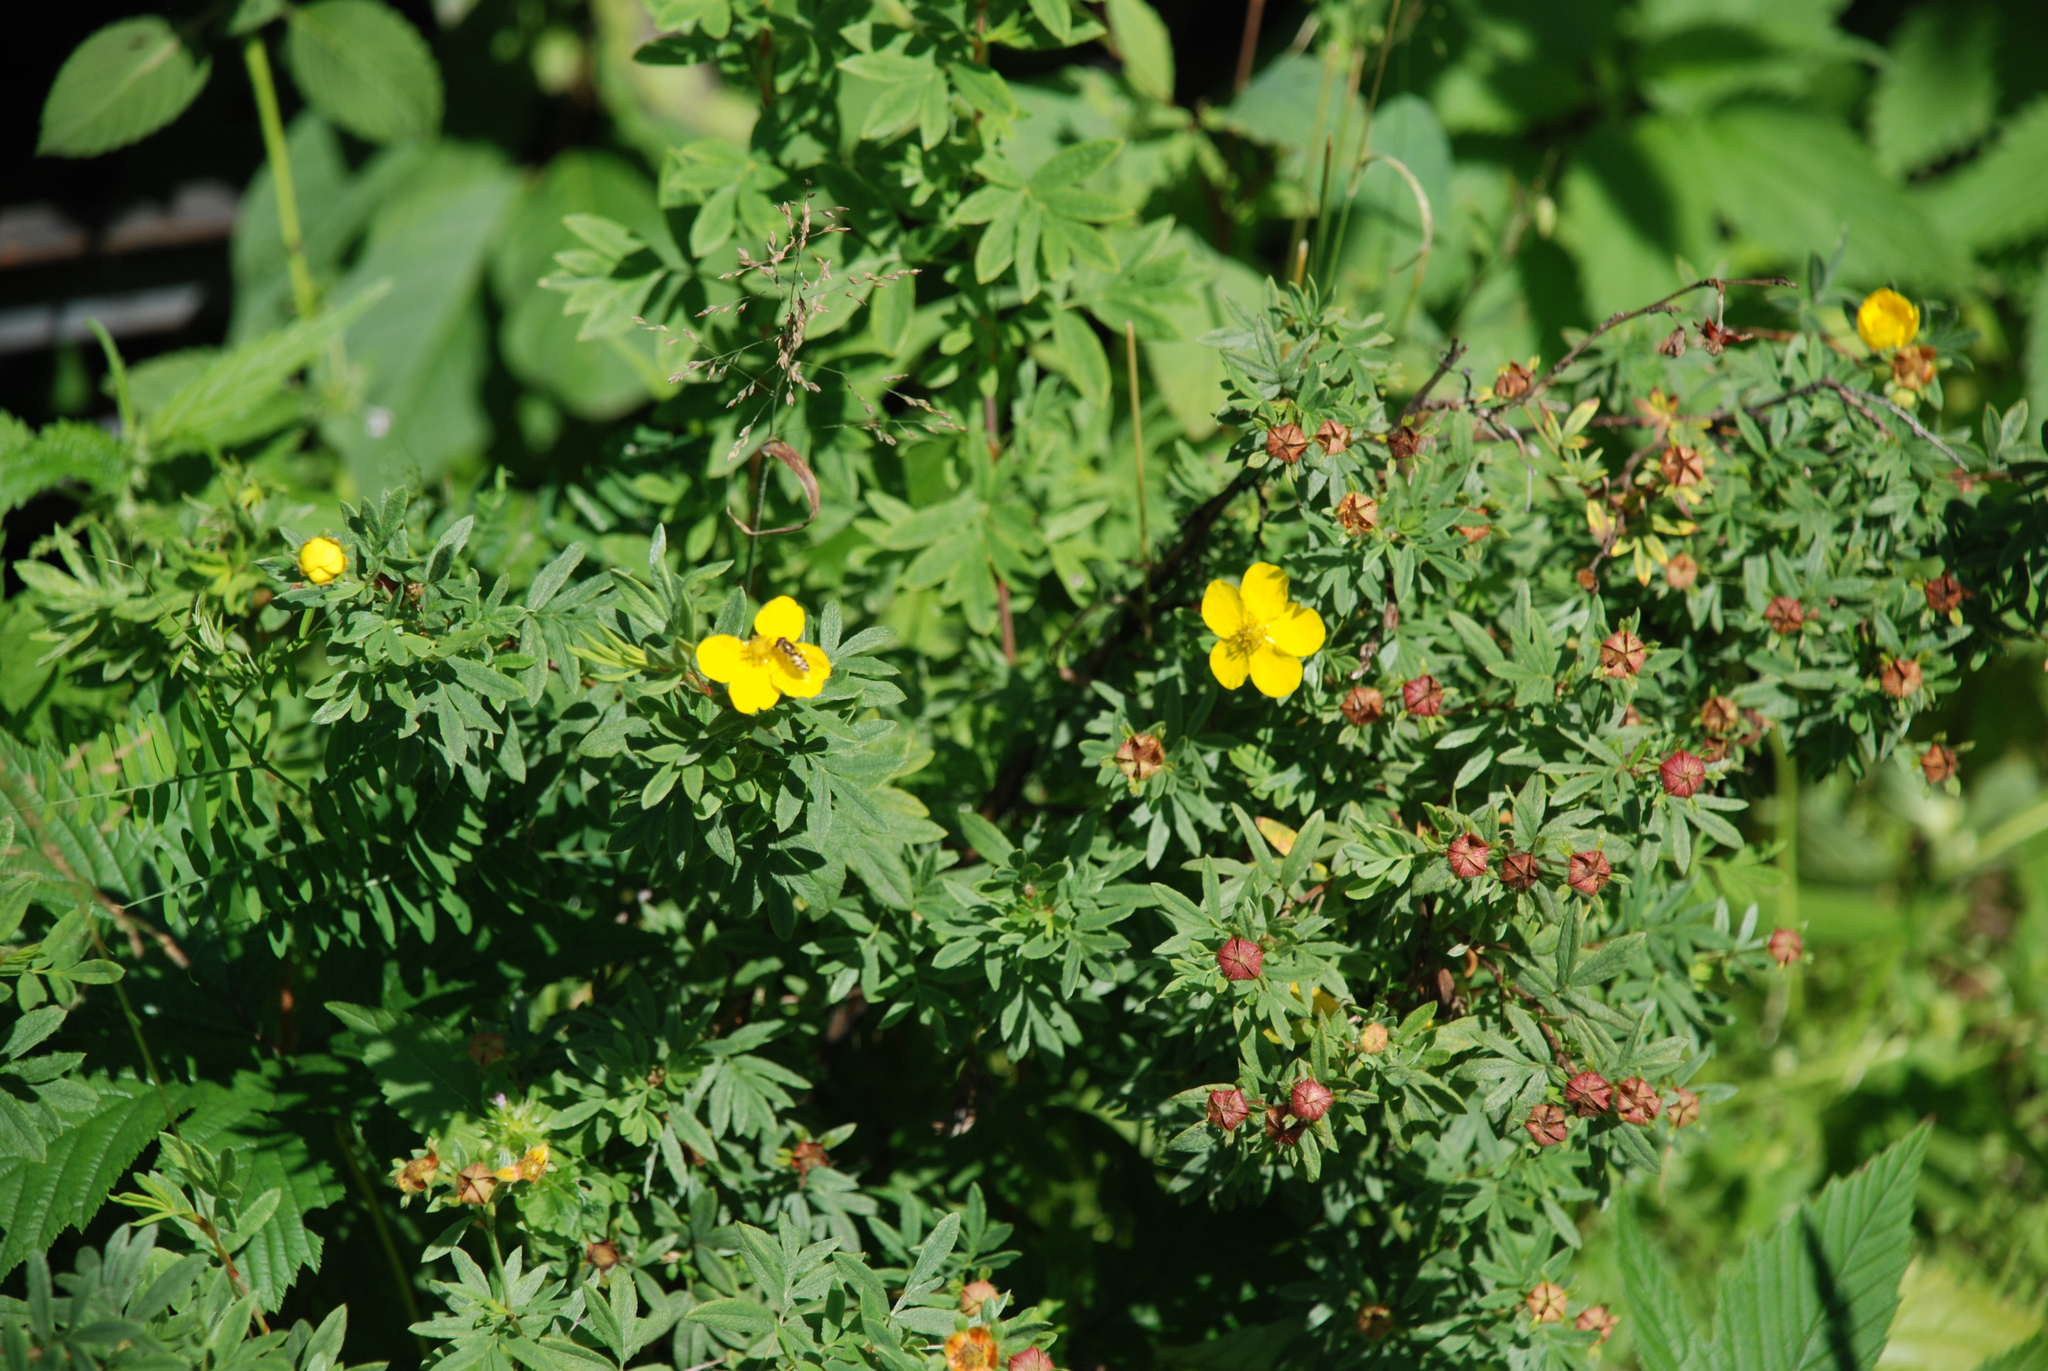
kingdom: Plantae
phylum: Tracheophyta
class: Magnoliopsida
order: Rosales
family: Rosaceae
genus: Dasiphora
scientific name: Dasiphora fruticosa
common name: Shrubby cinquefoil
